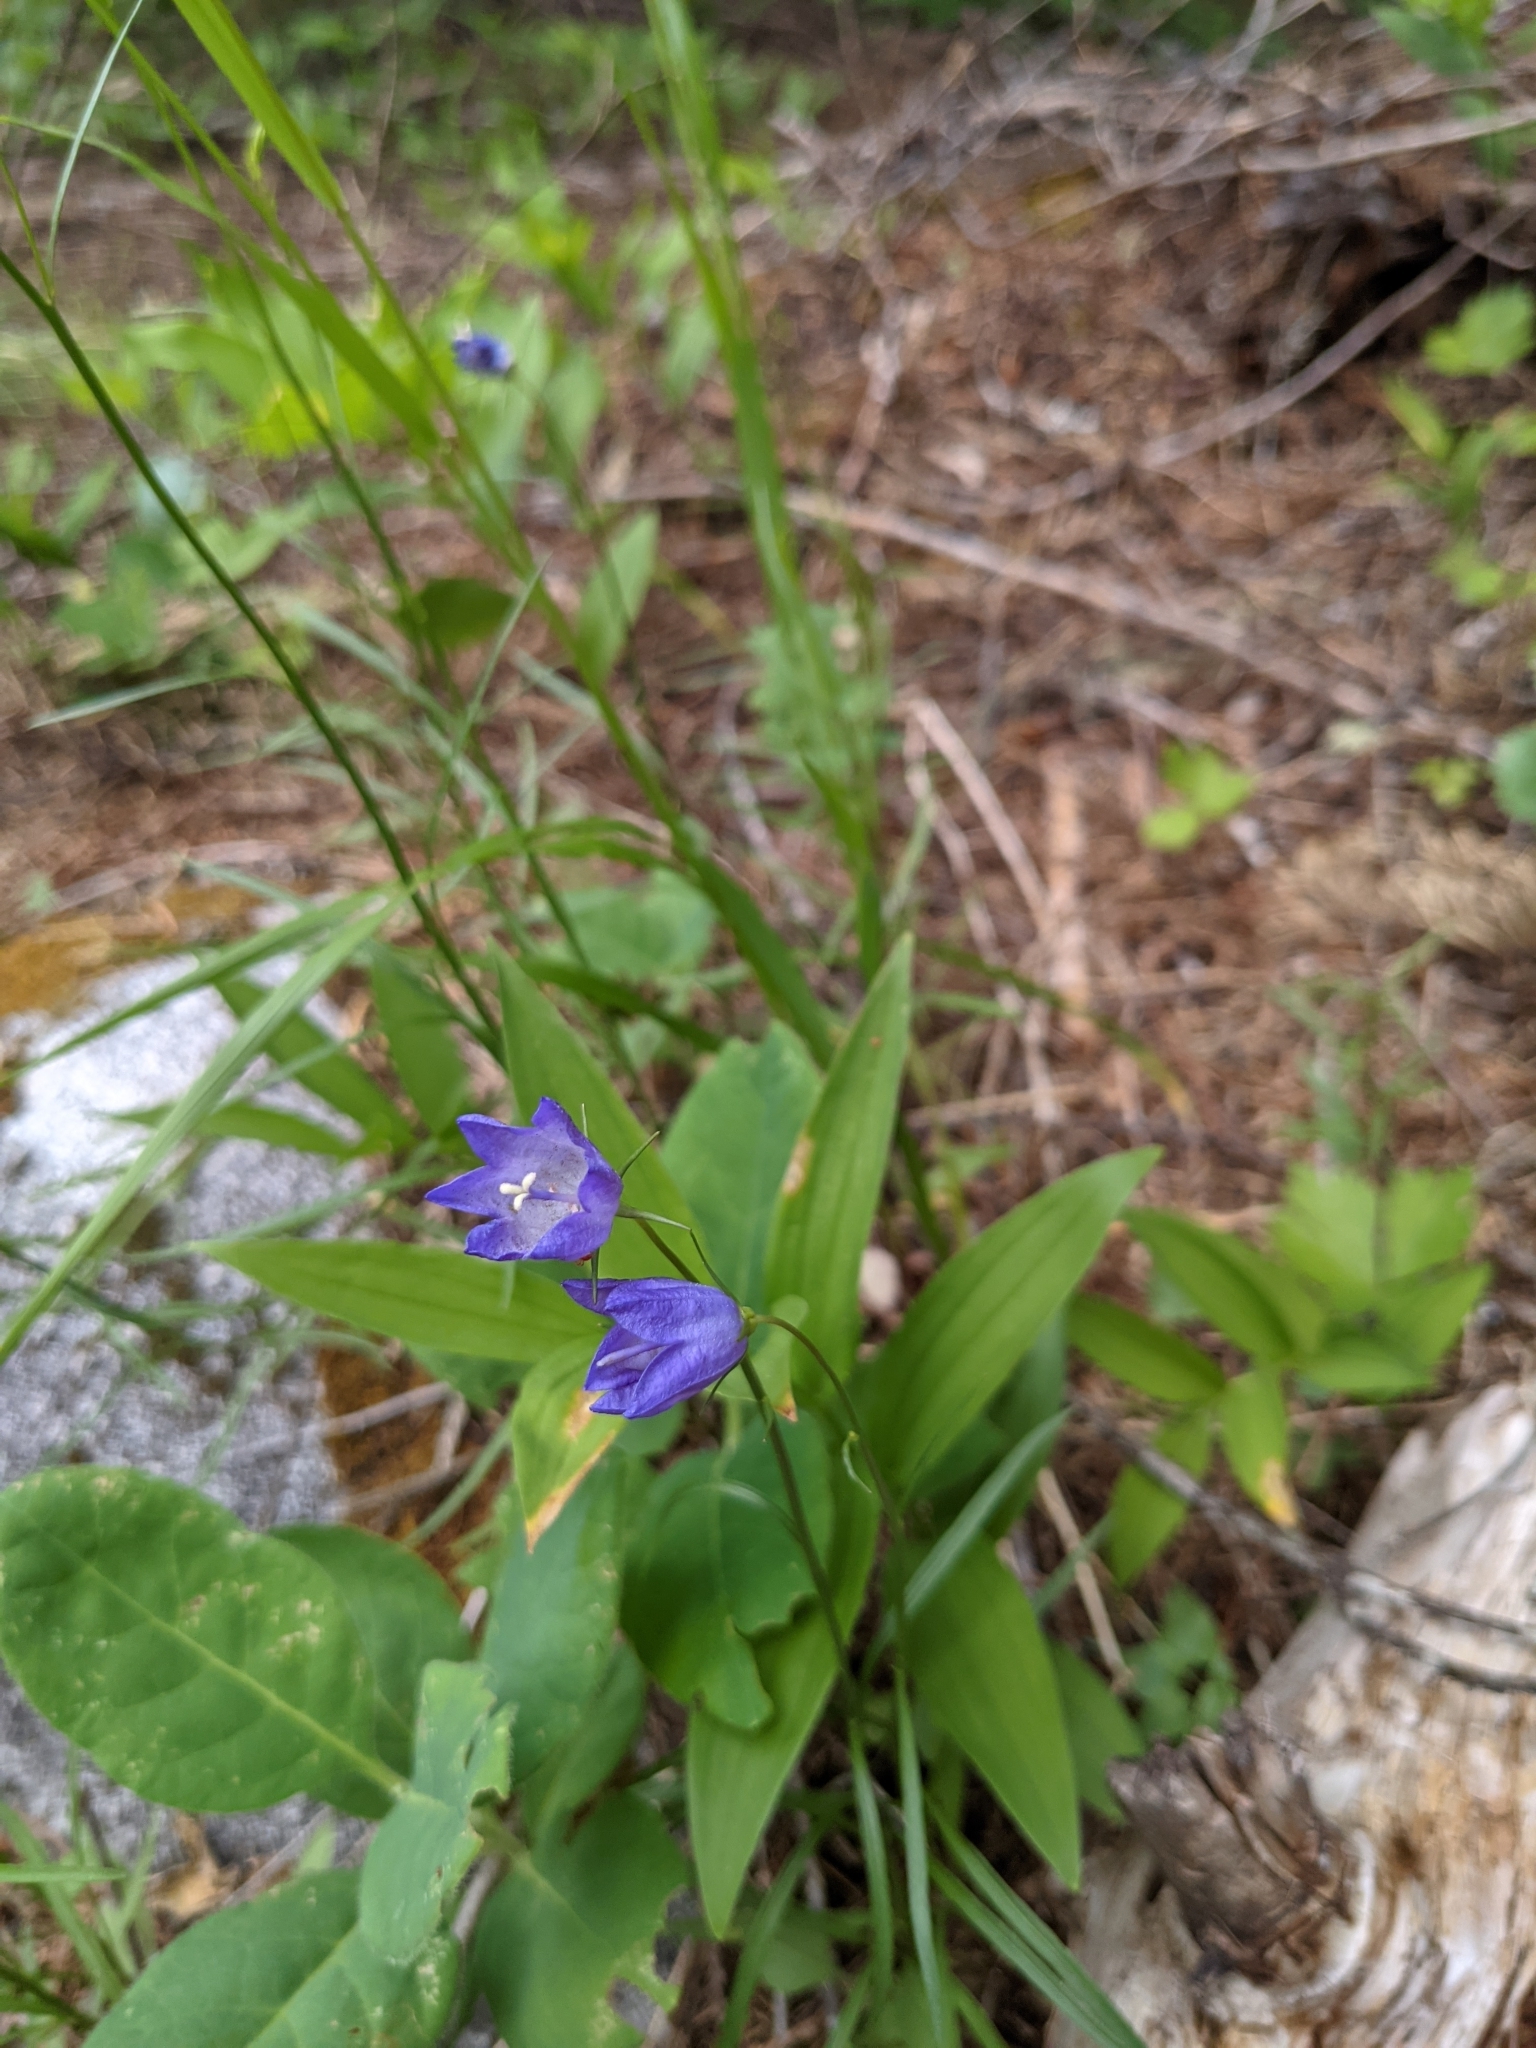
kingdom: Plantae
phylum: Tracheophyta
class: Magnoliopsida
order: Asterales
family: Campanulaceae
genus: Campanula
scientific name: Campanula petiolata
